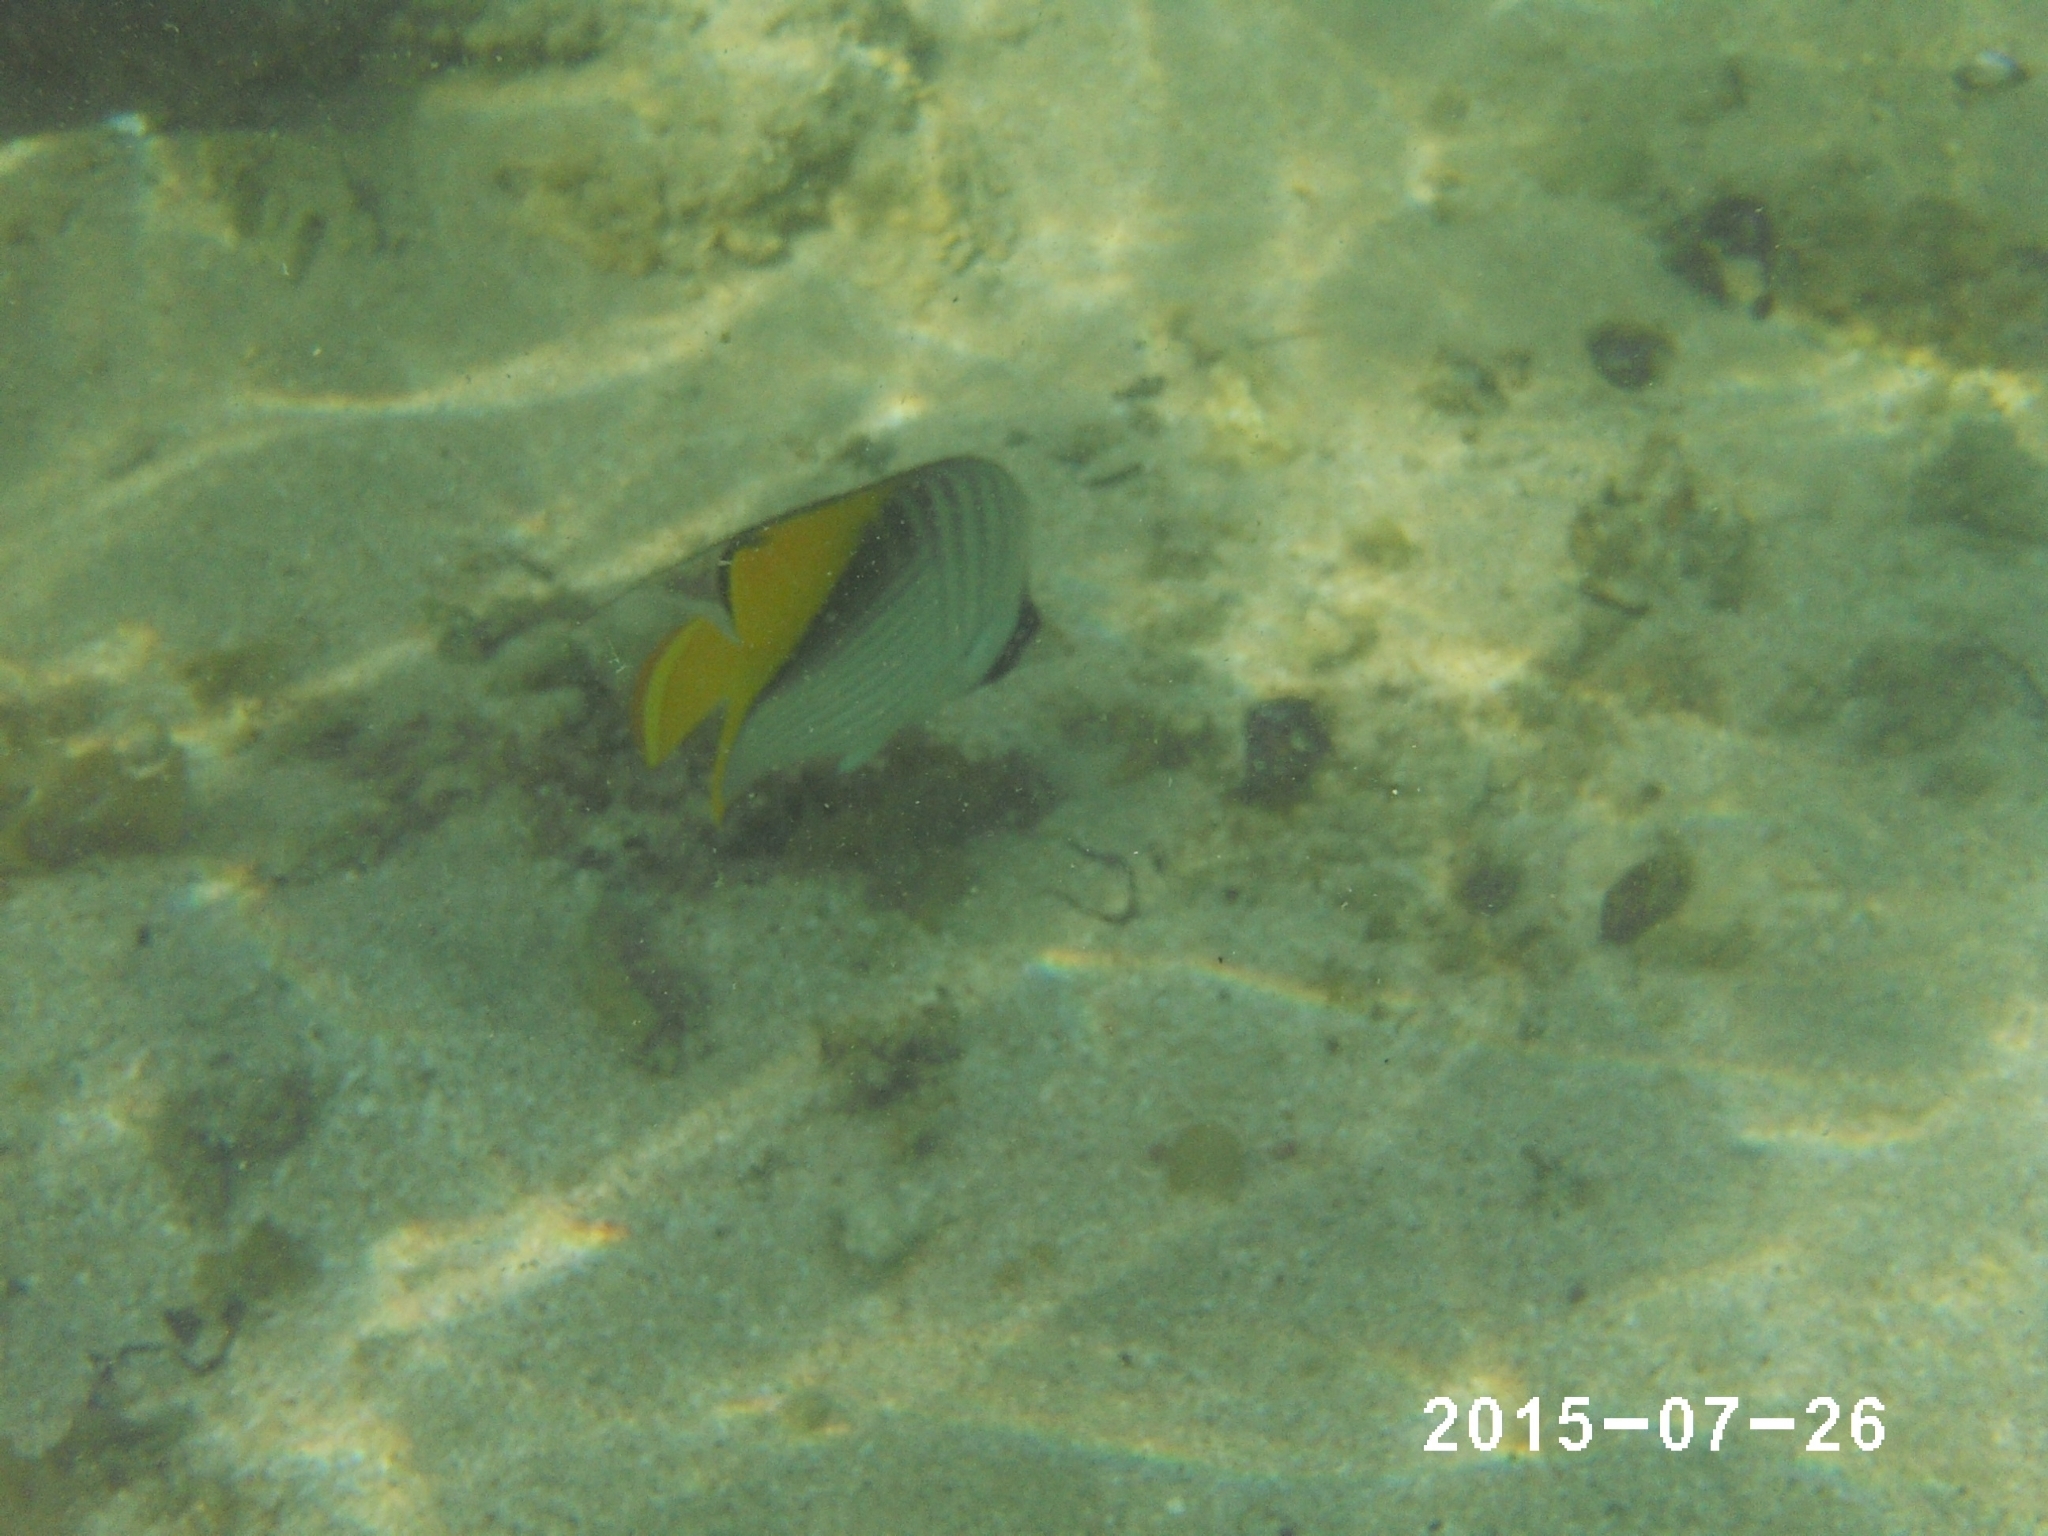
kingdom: Animalia
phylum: Chordata
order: Perciformes
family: Chaetodontidae
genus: Chaetodon
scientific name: Chaetodon auriga
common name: Threadfin butterflyfish
